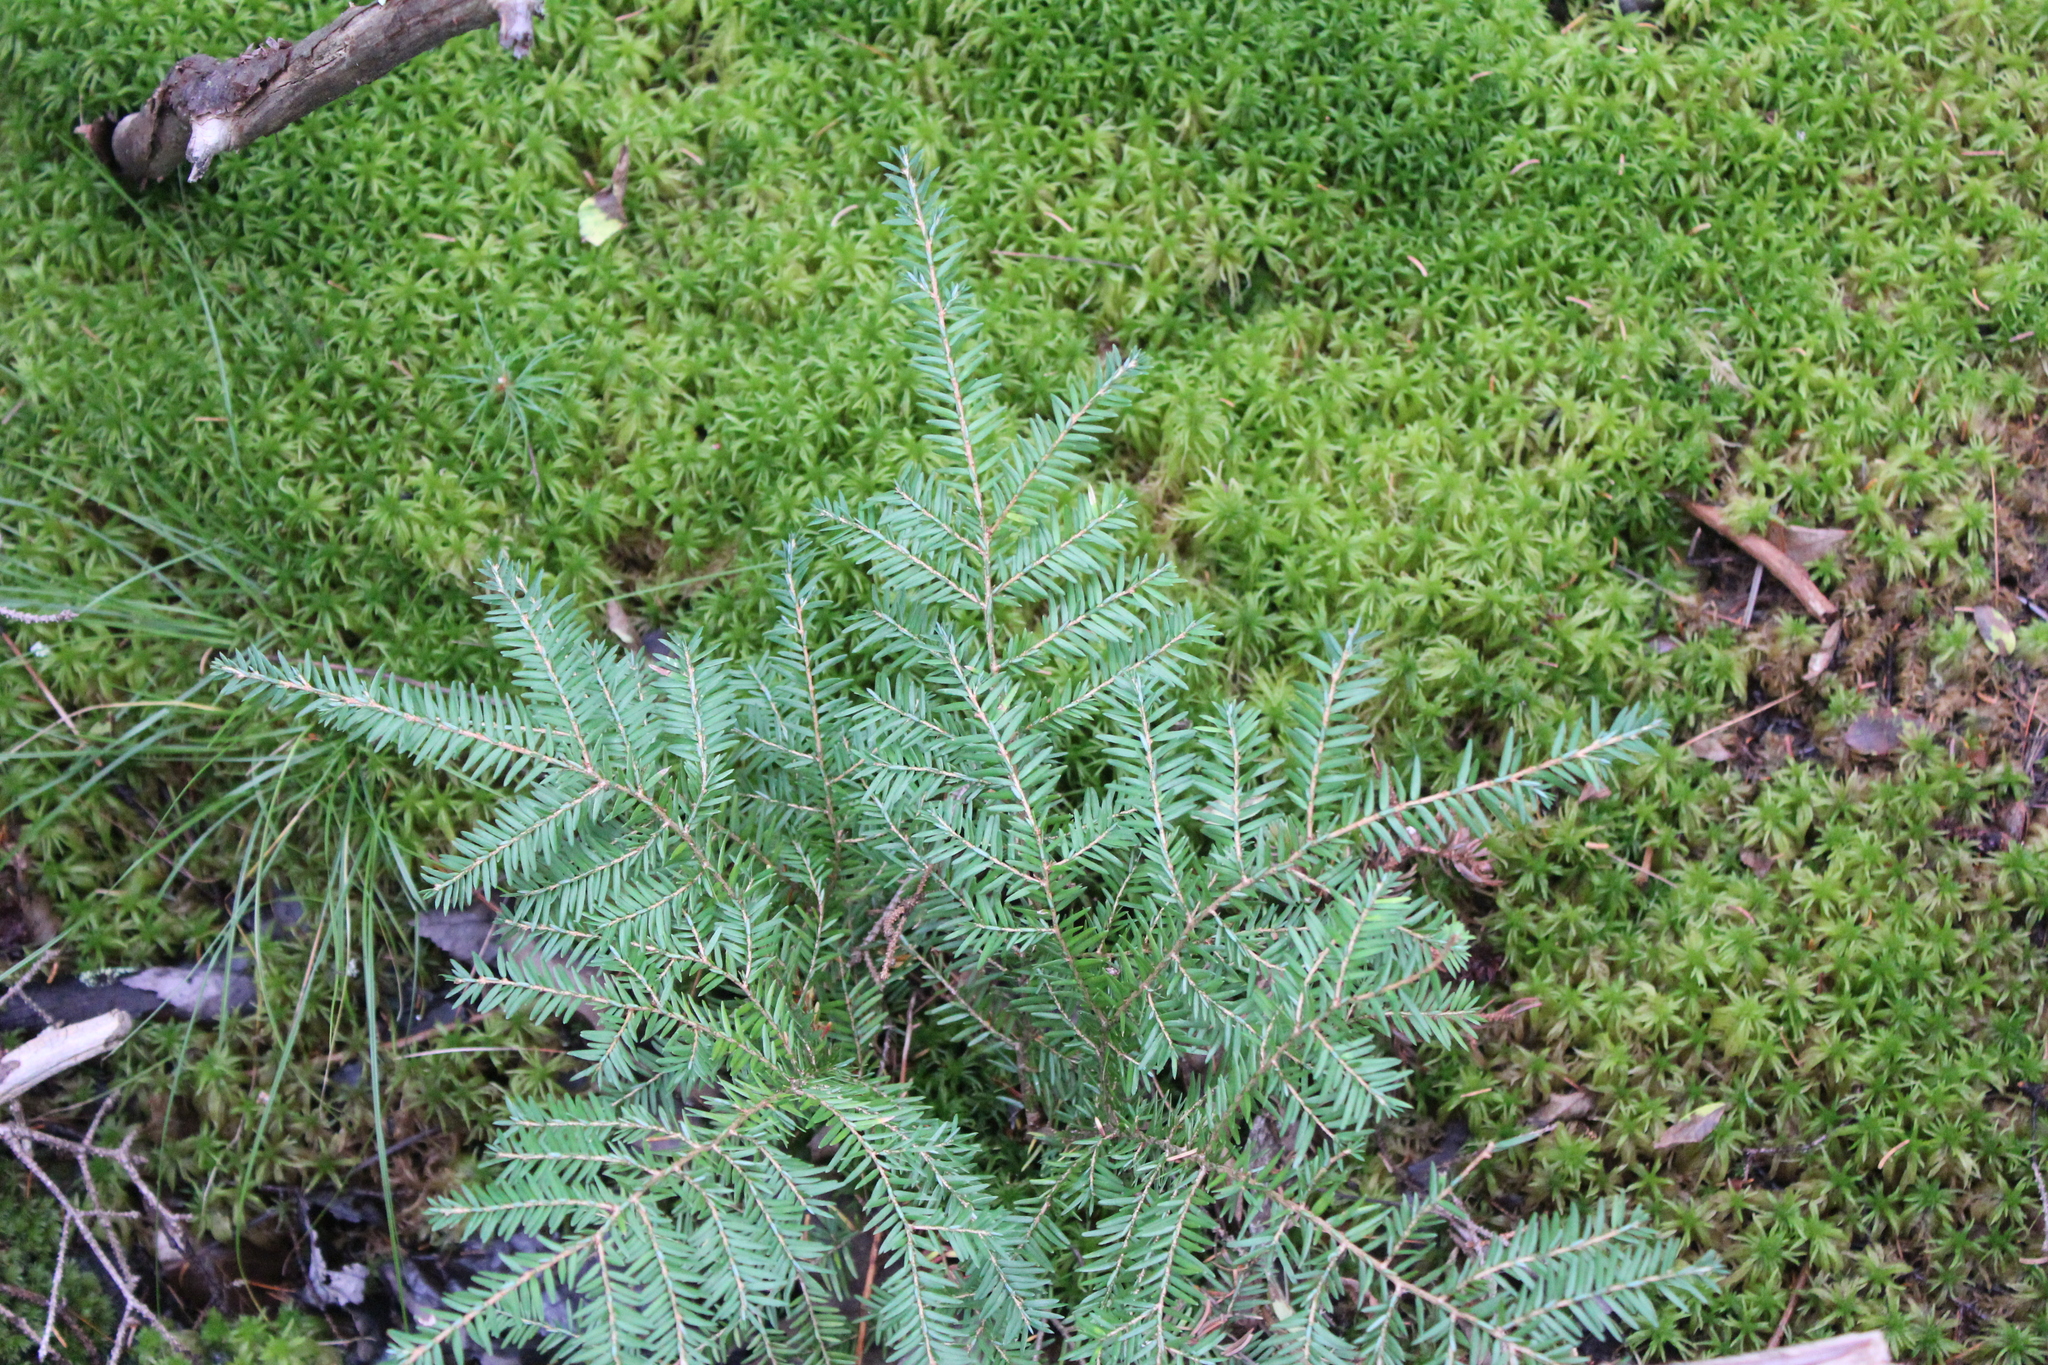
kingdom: Plantae
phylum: Tracheophyta
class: Pinopsida
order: Pinales
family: Pinaceae
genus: Tsuga
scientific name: Tsuga canadensis
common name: Eastern hemlock
